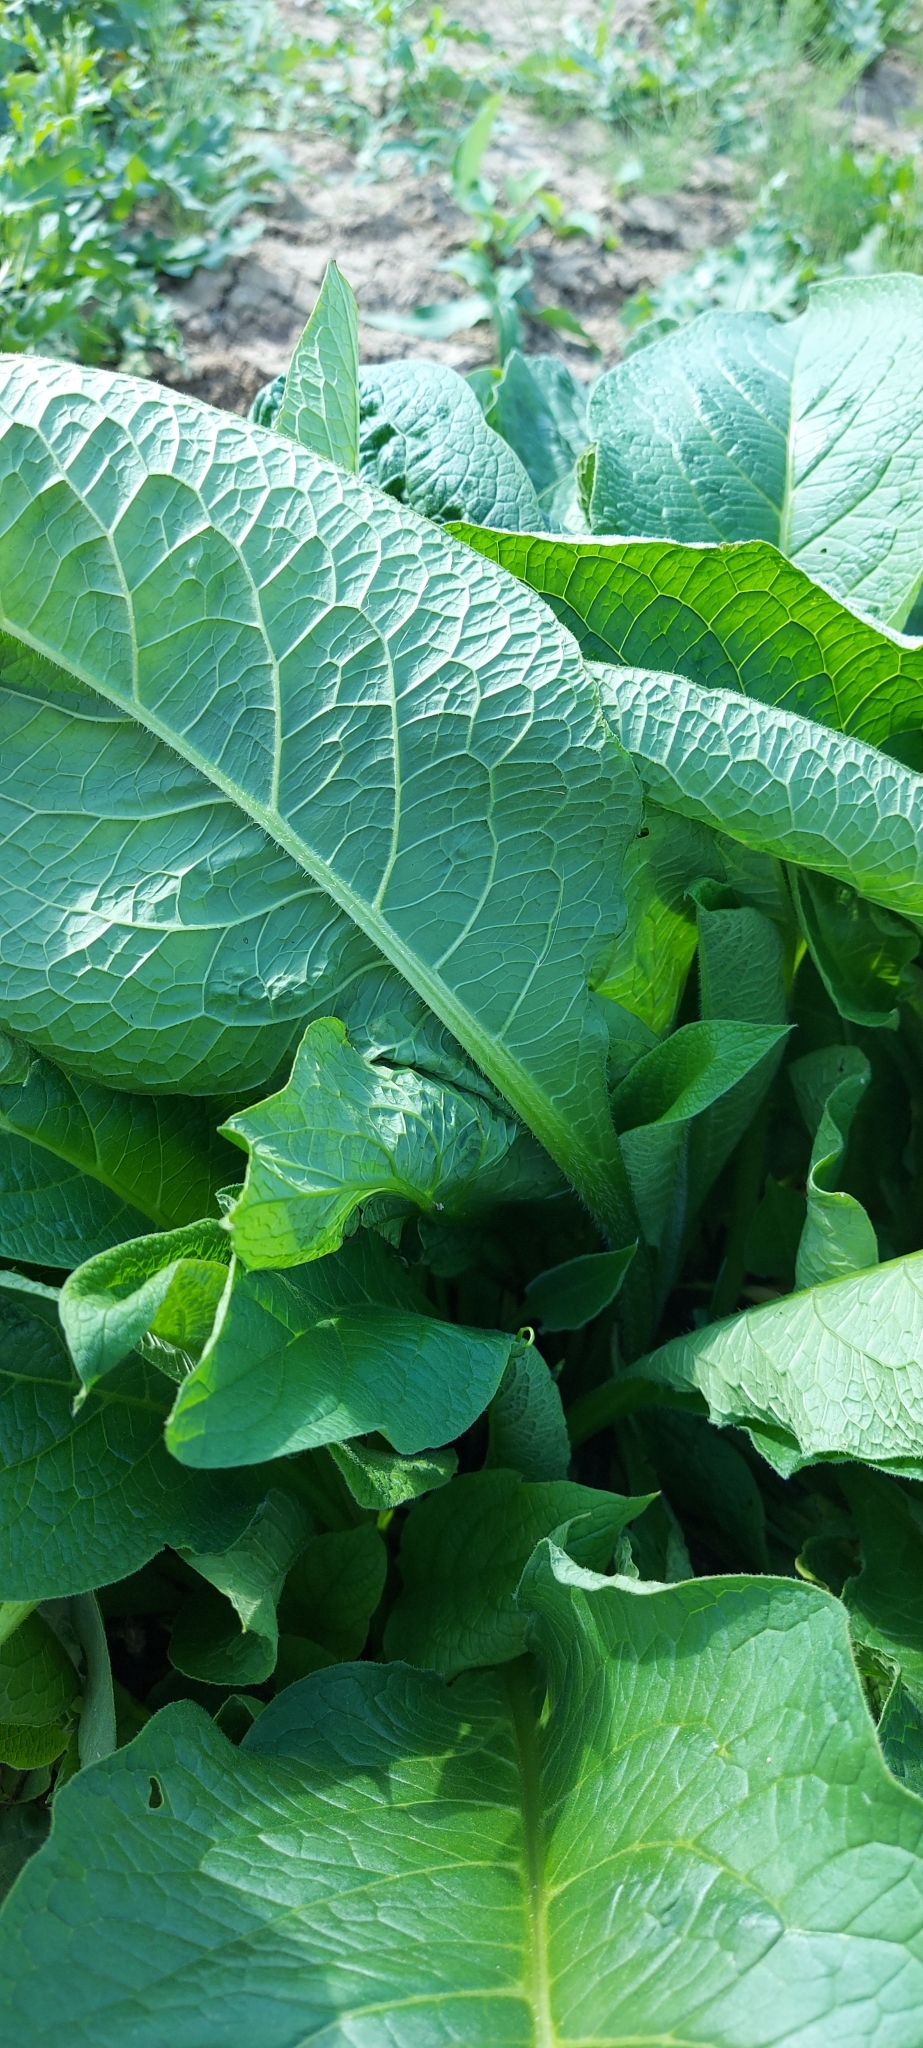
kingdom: Plantae
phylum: Tracheophyta
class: Magnoliopsida
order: Boraginales
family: Boraginaceae
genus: Symphytum
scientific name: Symphytum officinale
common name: Common comfrey
